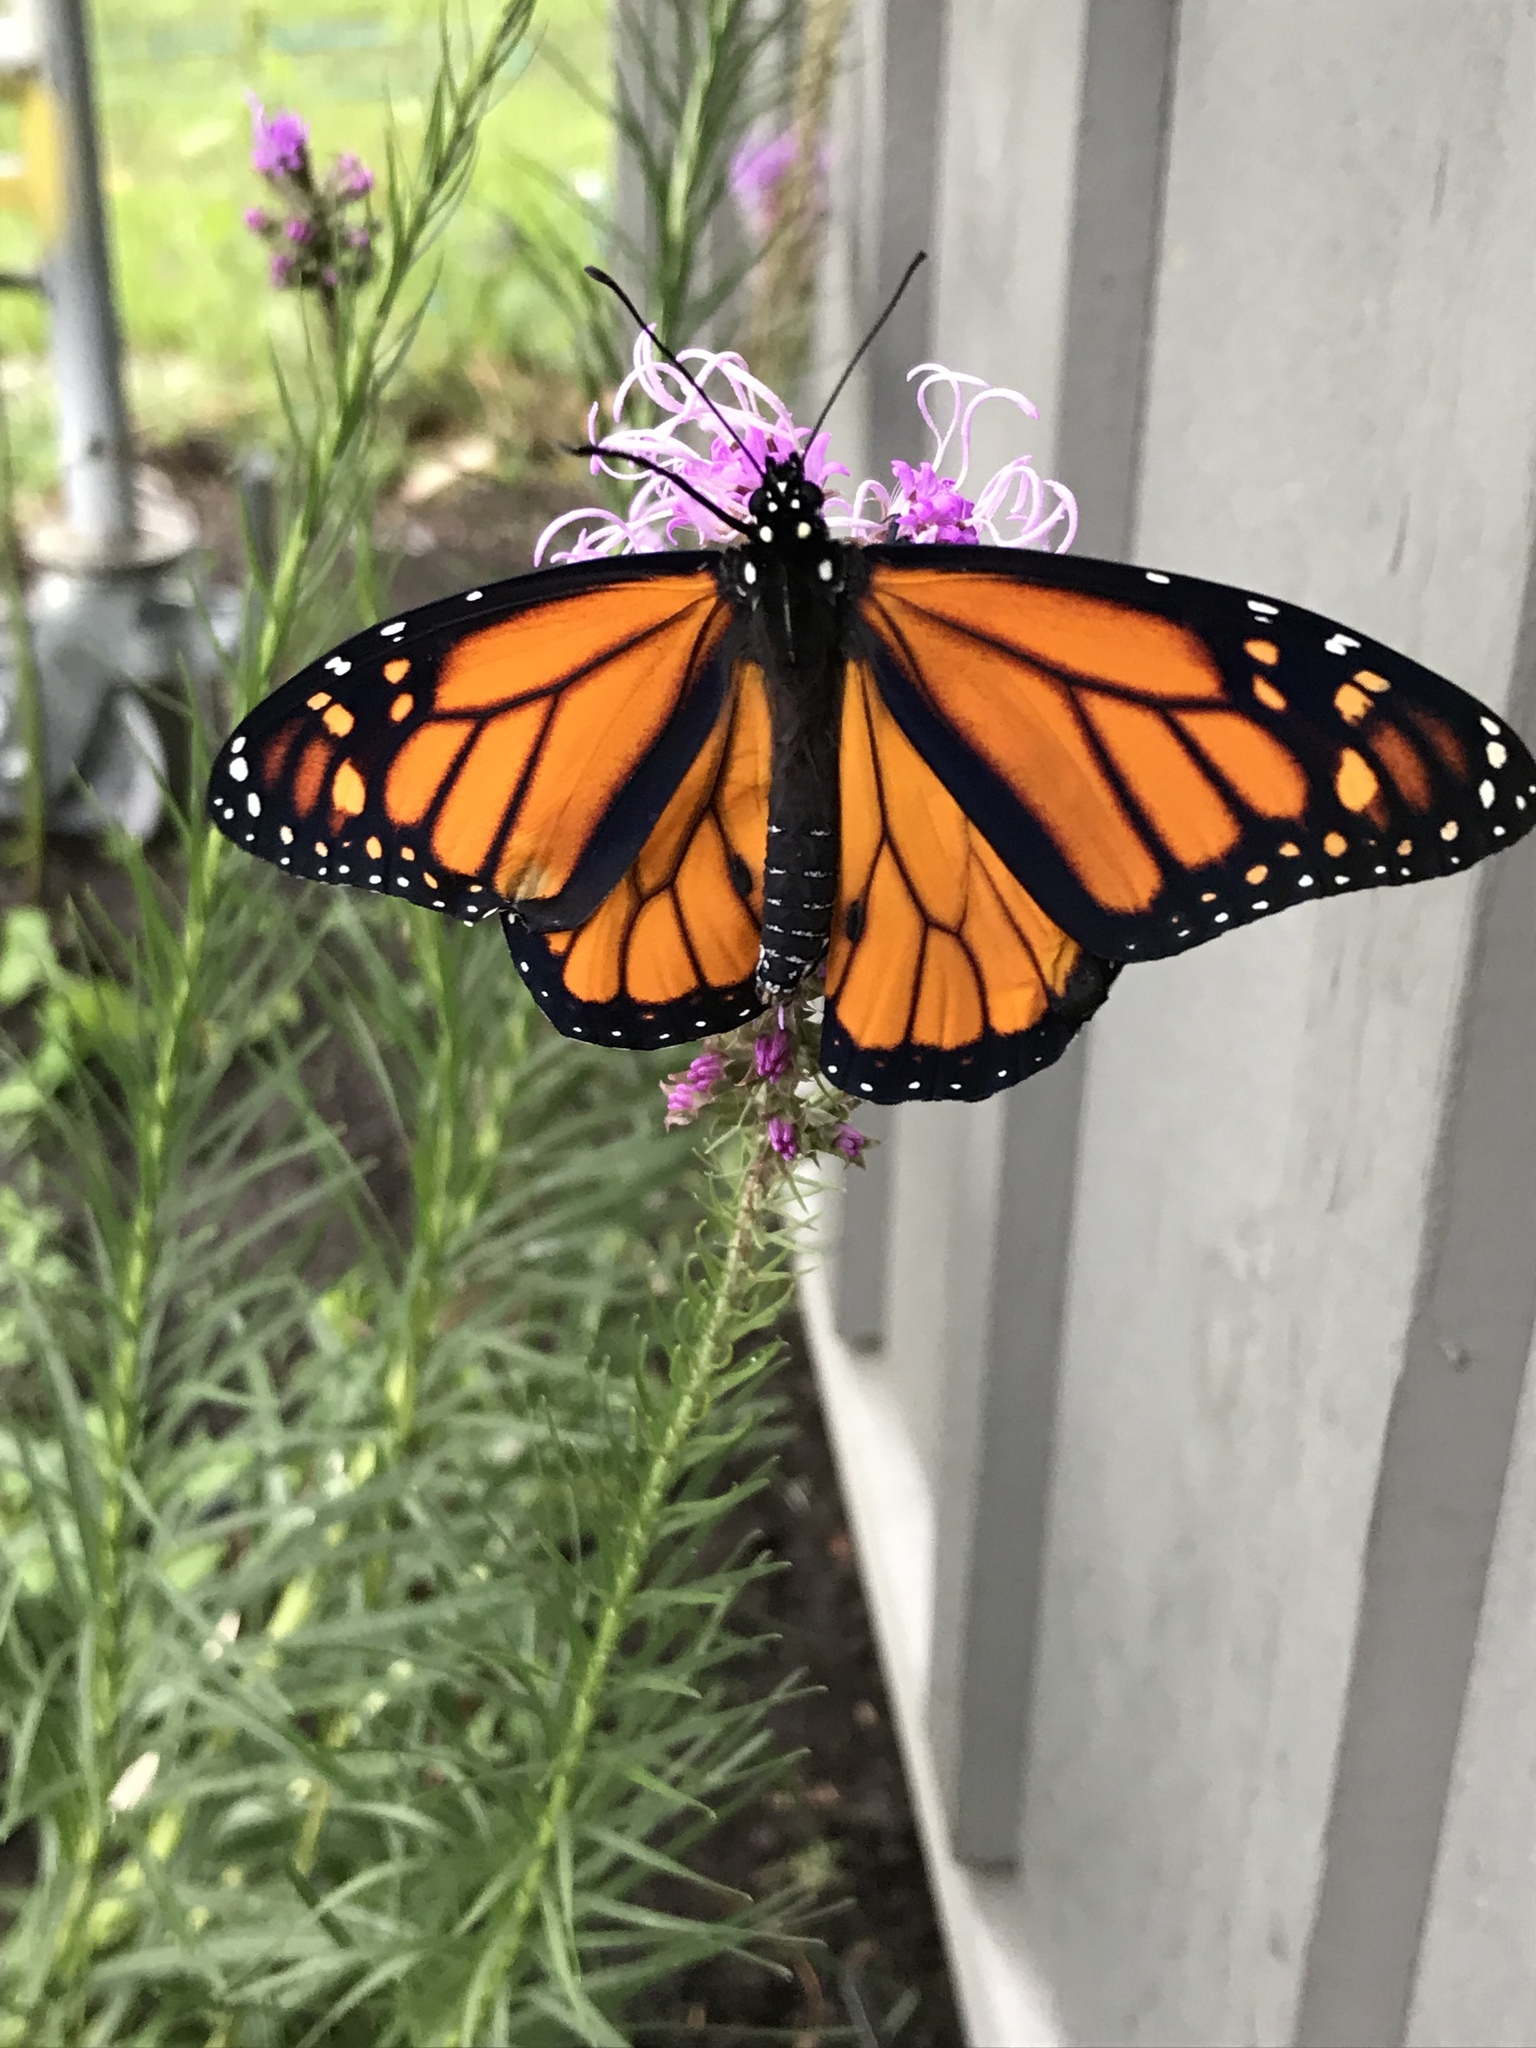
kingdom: Animalia
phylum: Arthropoda
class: Insecta
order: Lepidoptera
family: Nymphalidae
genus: Danaus
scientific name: Danaus plexippus
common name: Monarch
